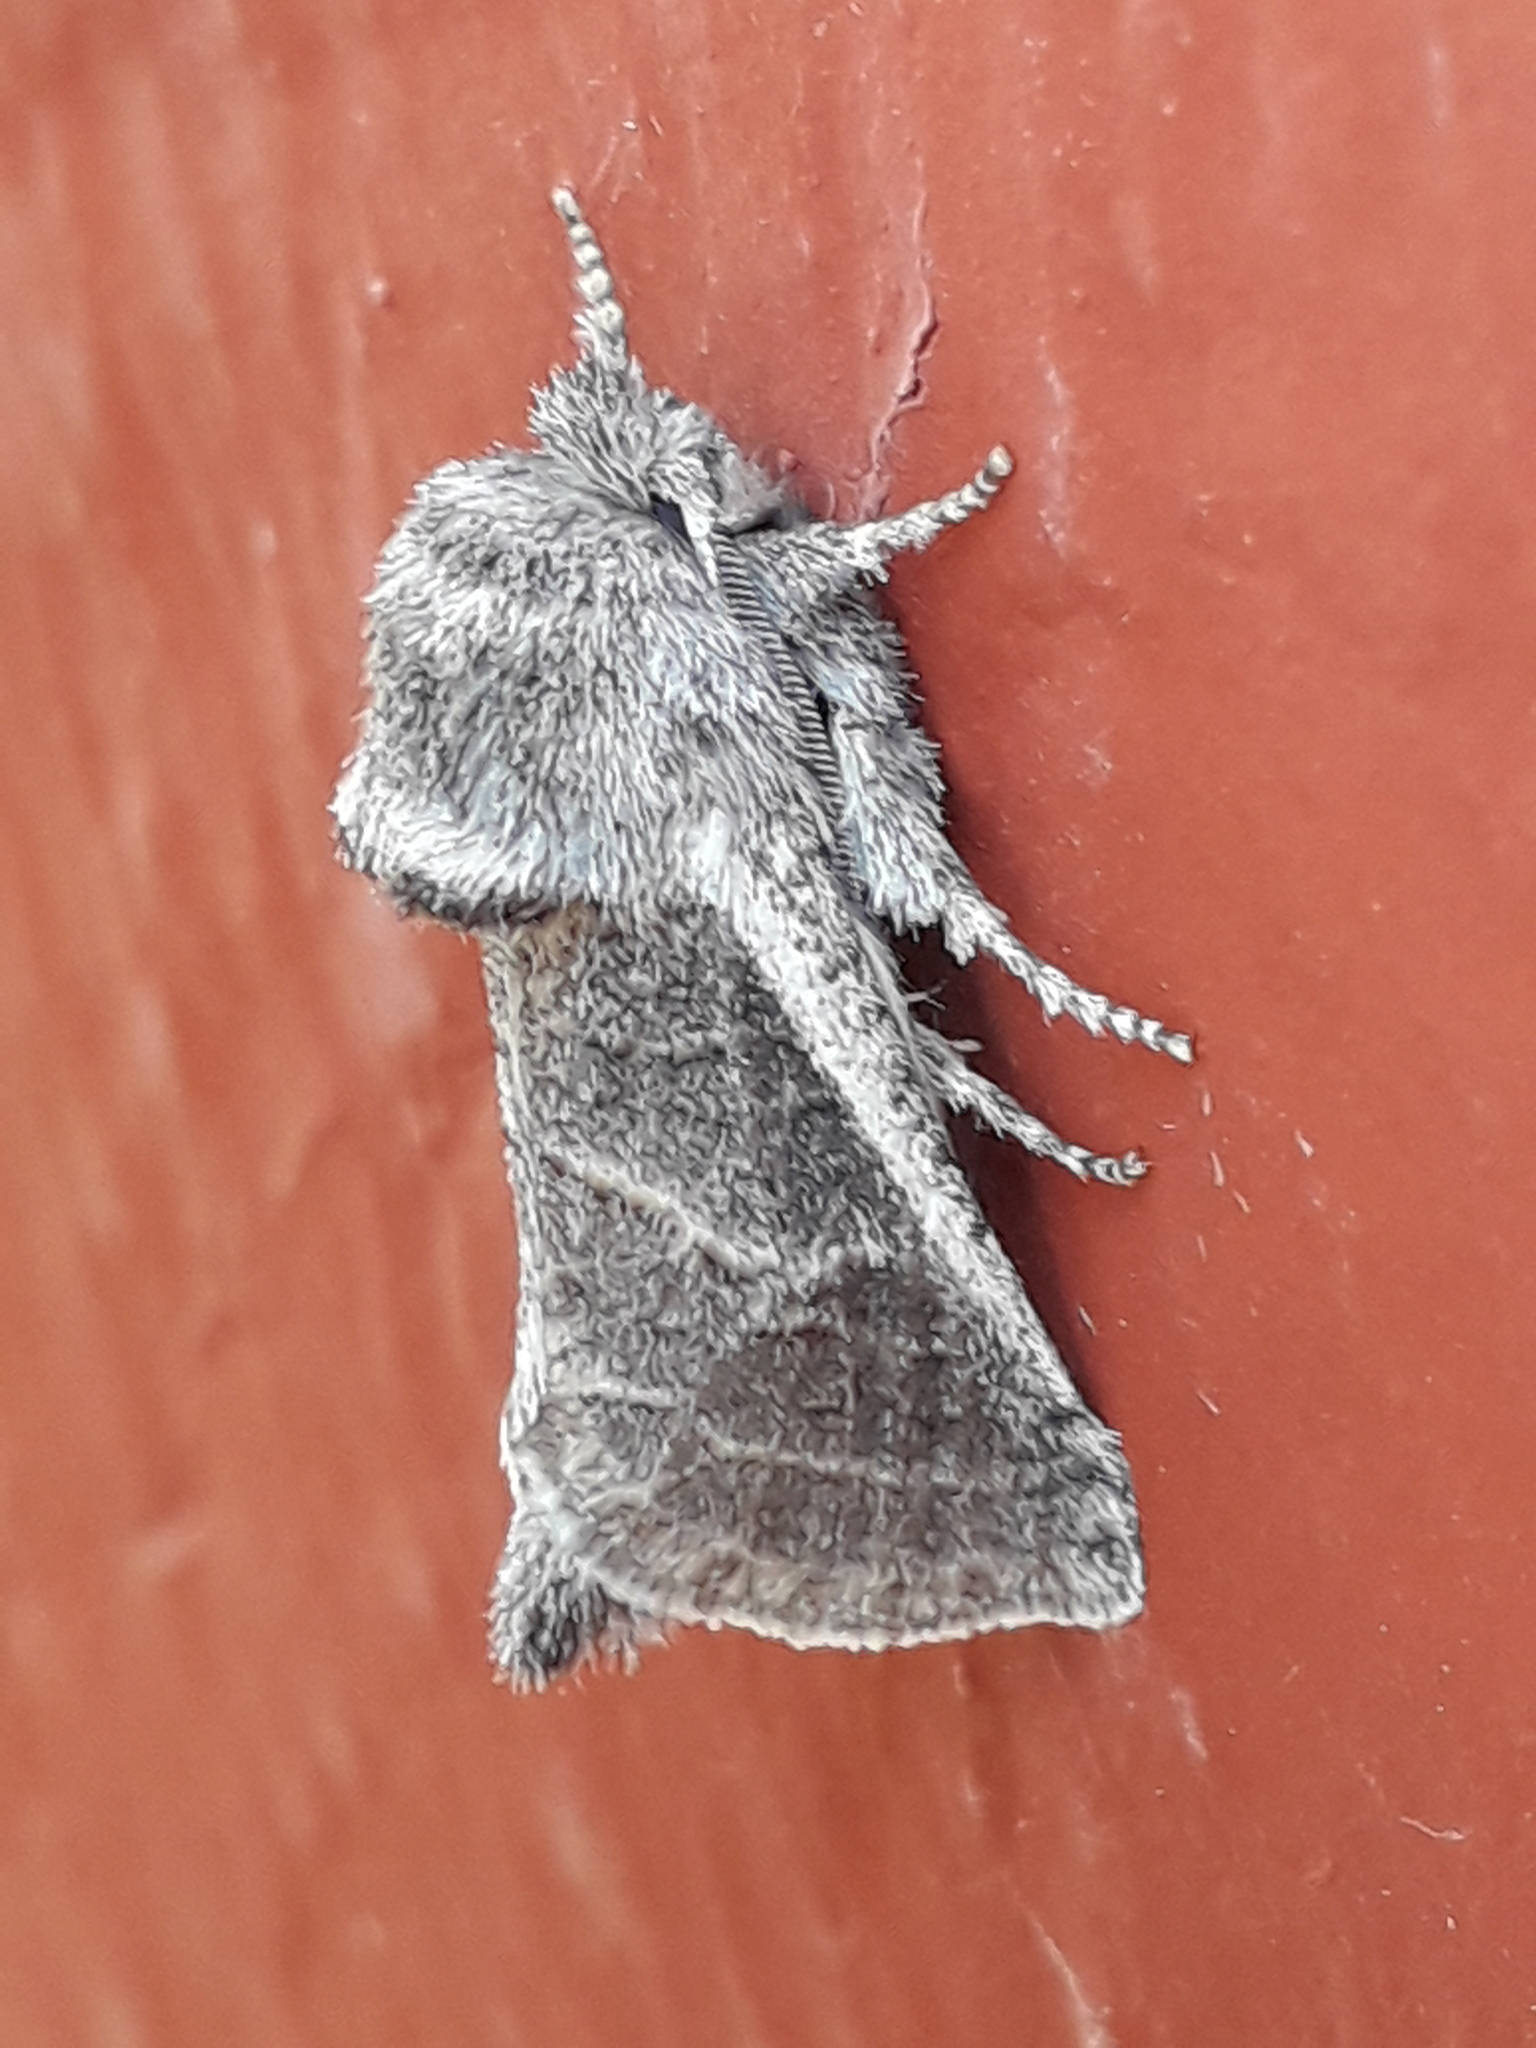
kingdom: Animalia
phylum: Arthropoda
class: Insecta
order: Lepidoptera
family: Cossidae
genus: Comadia
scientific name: Comadia redtenbacheri
